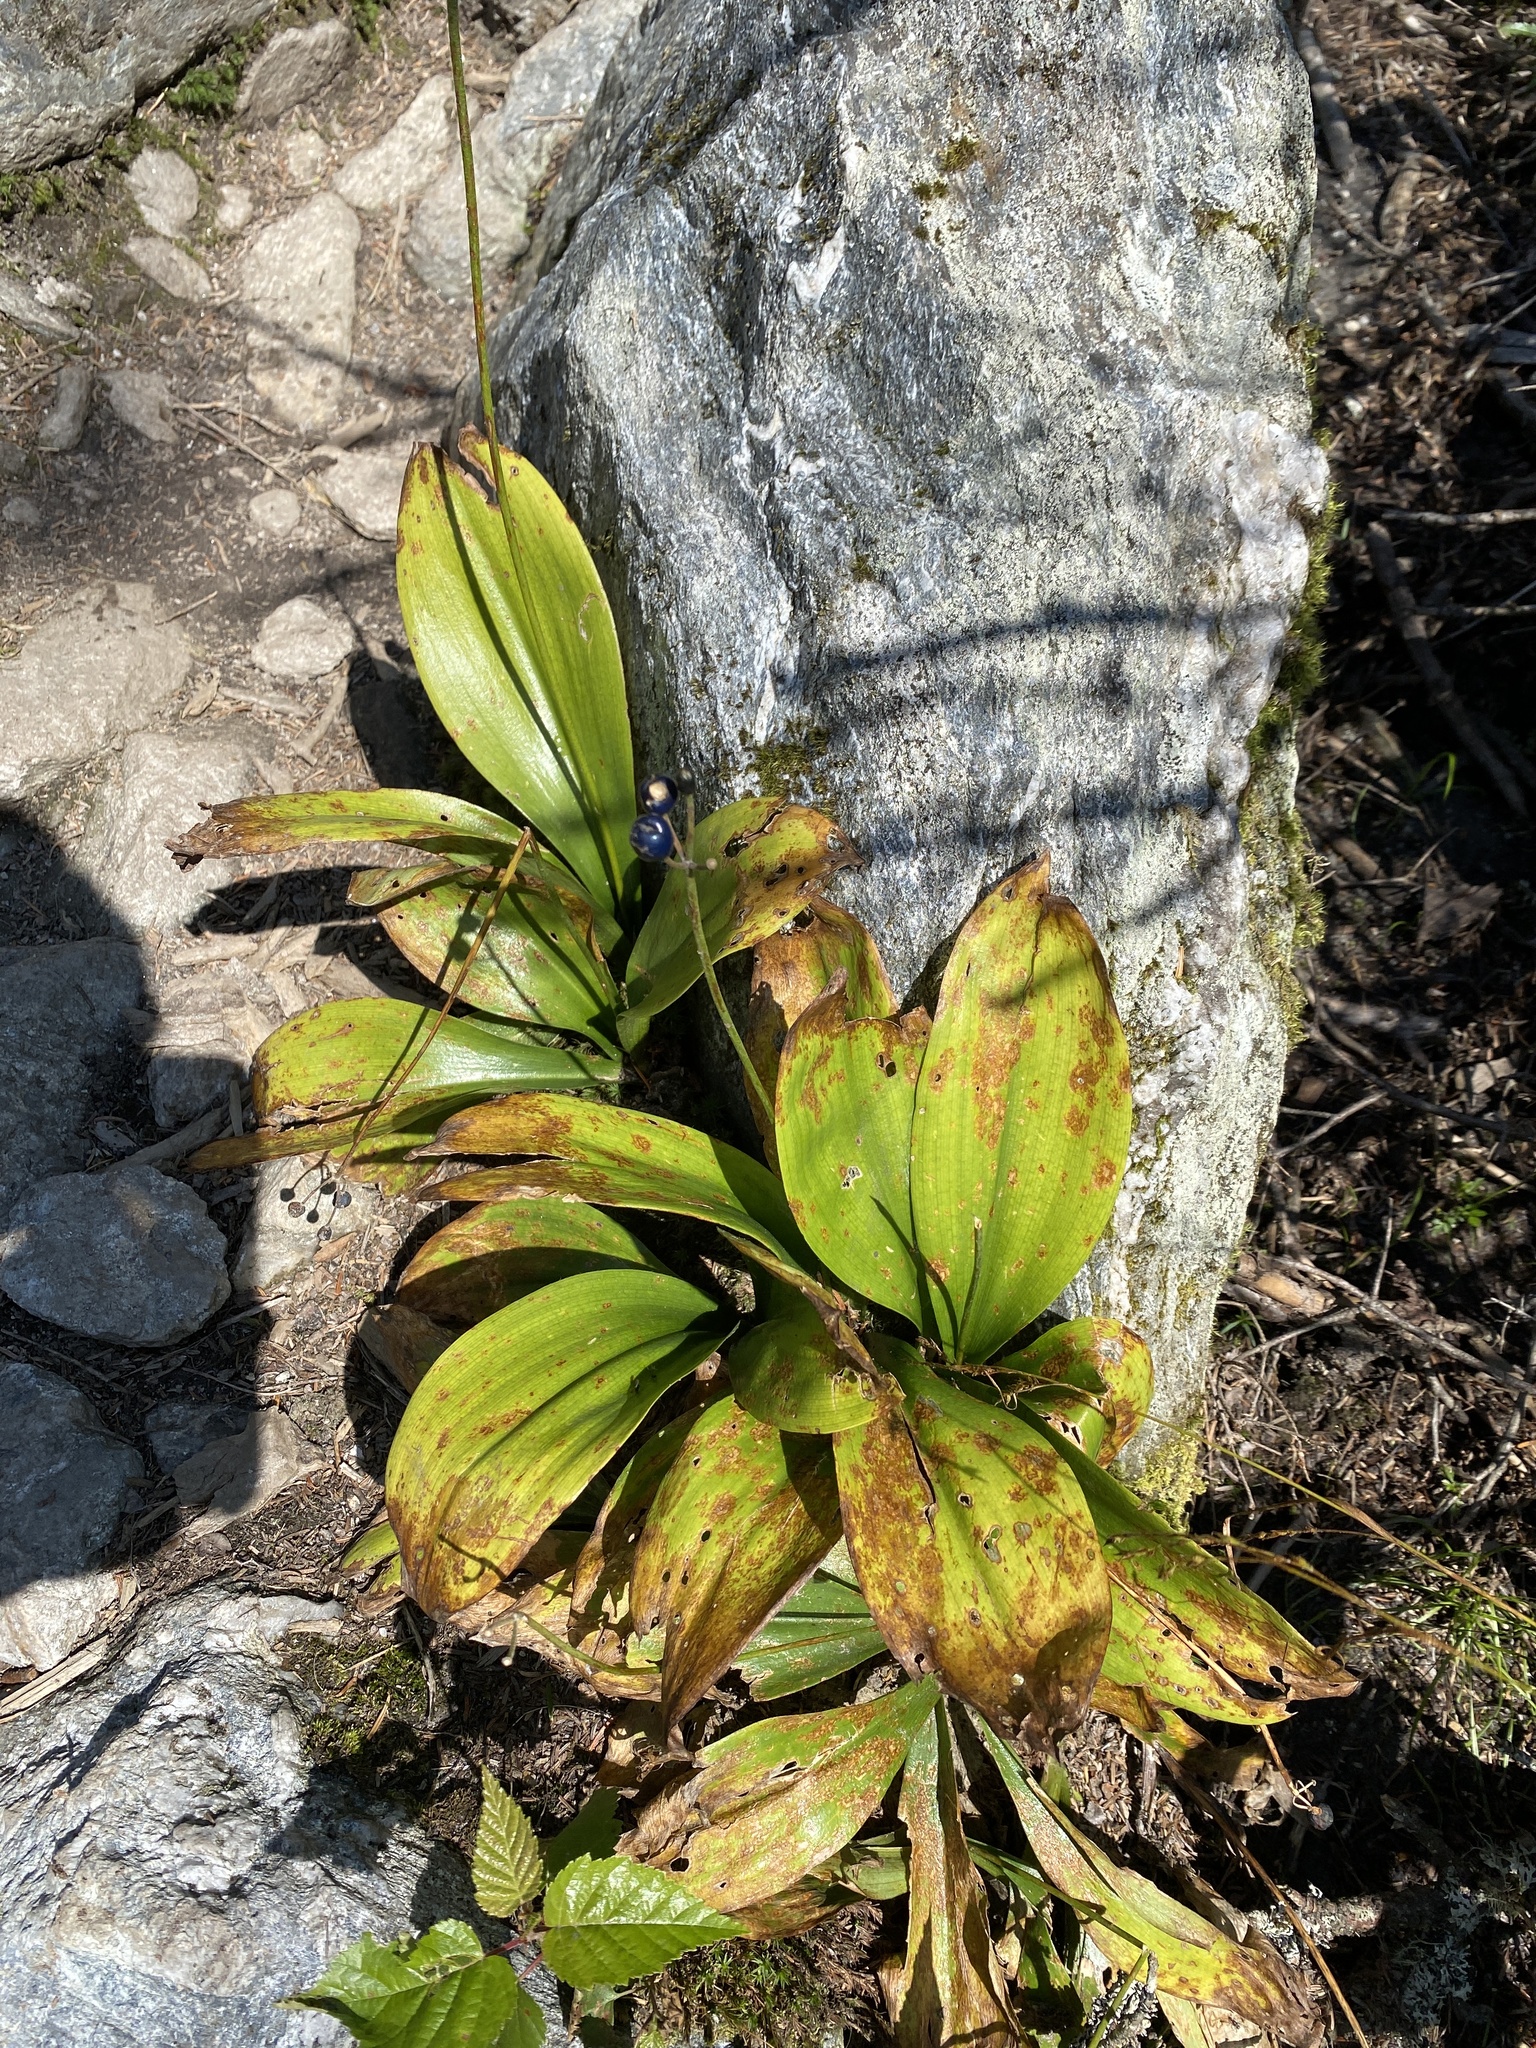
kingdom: Plantae
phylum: Tracheophyta
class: Liliopsida
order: Liliales
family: Liliaceae
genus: Clintonia
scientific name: Clintonia borealis
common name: Yellow clintonia
